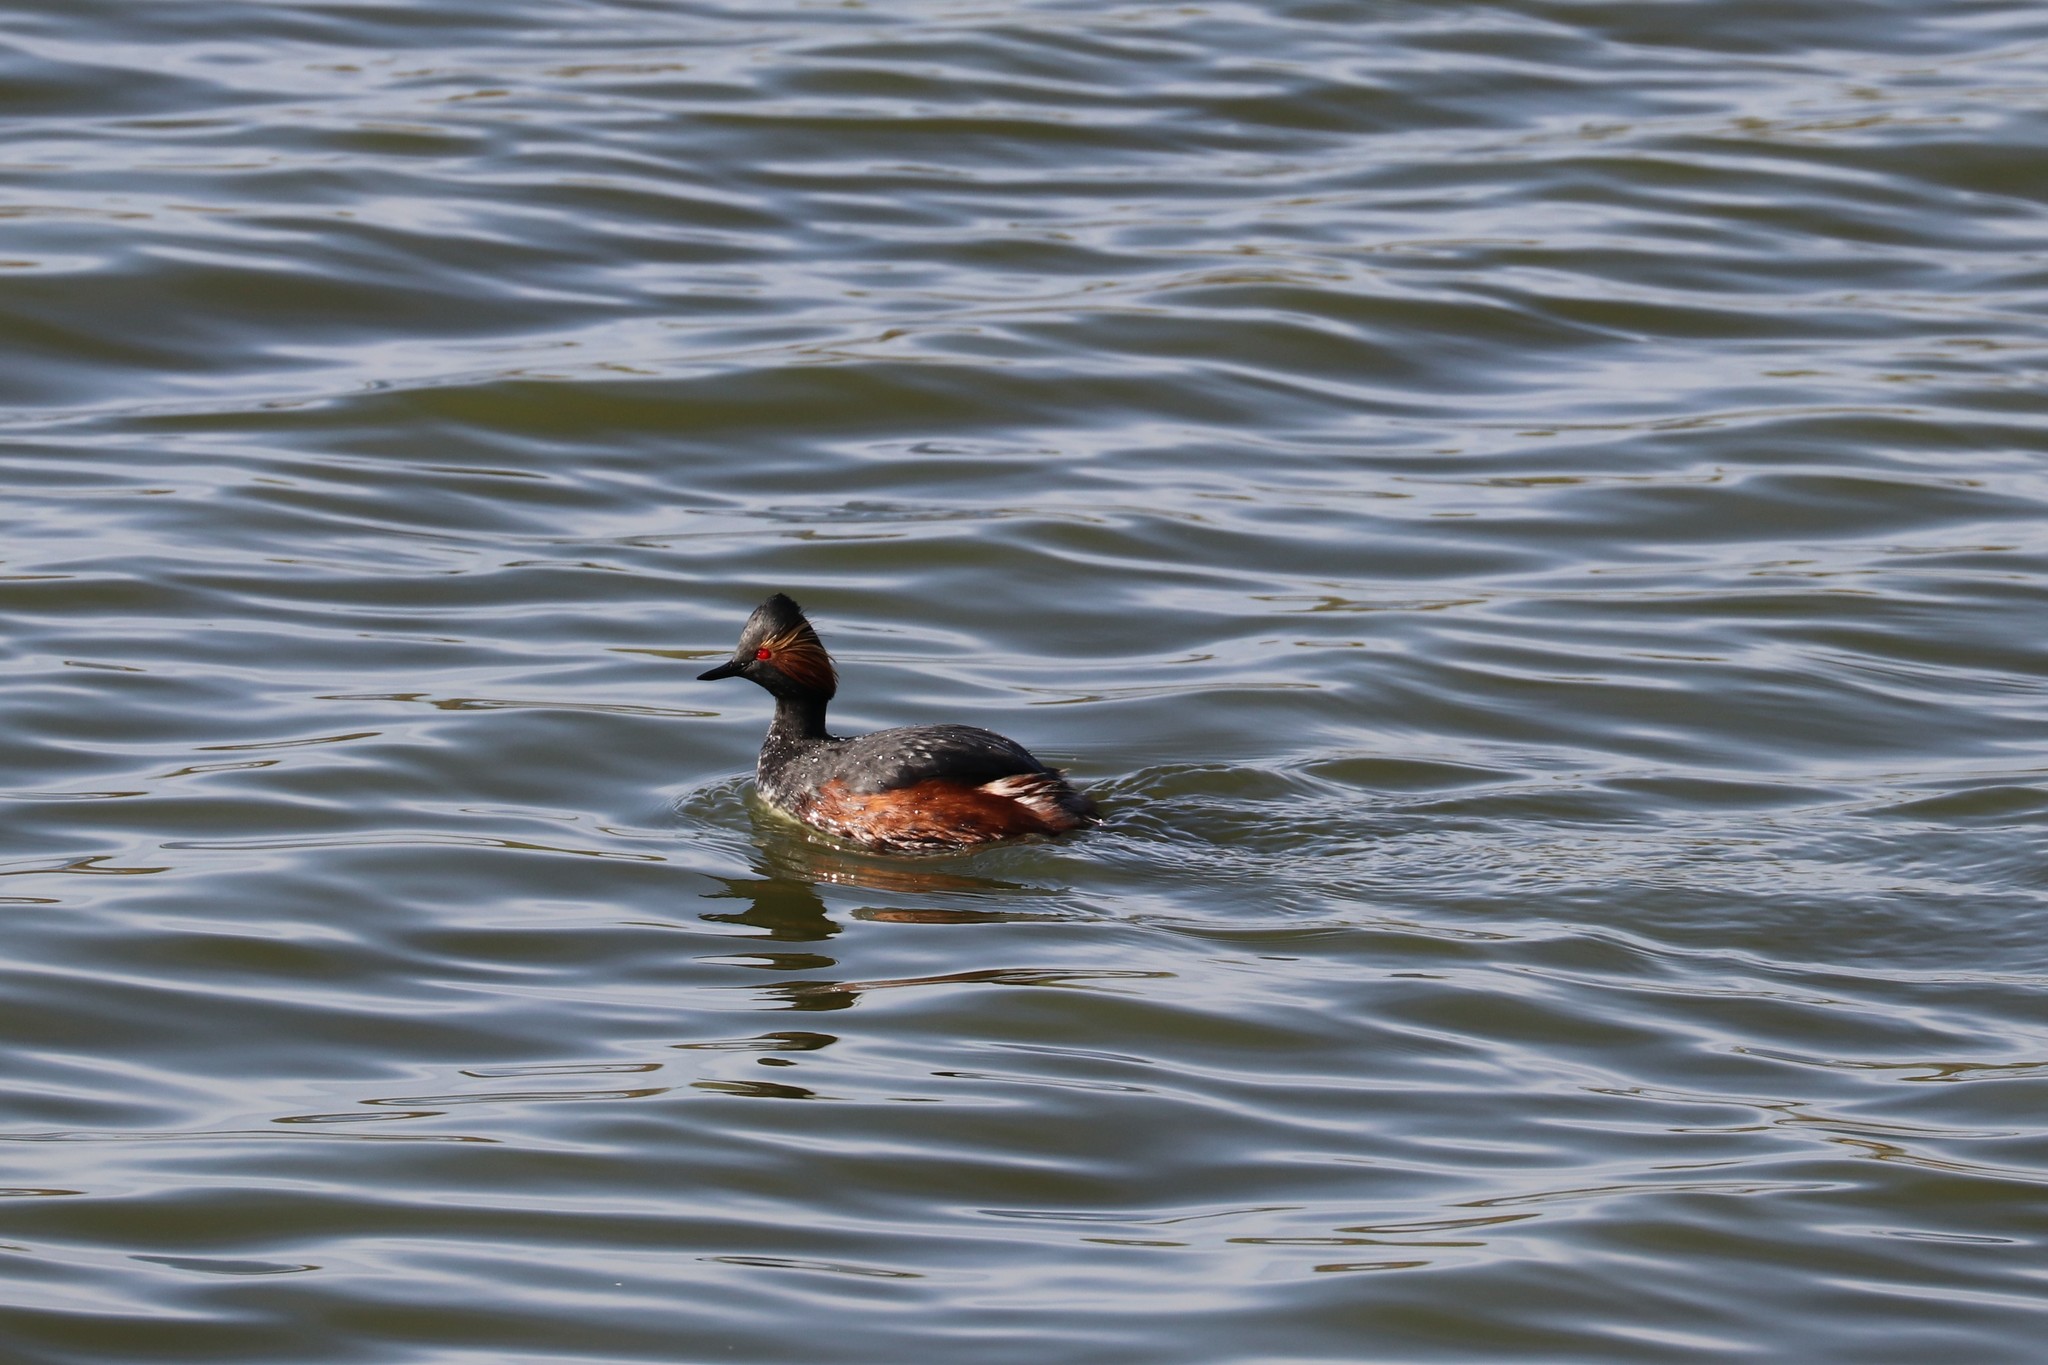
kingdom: Animalia
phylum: Chordata
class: Aves
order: Podicipediformes
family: Podicipedidae
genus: Podiceps
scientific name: Podiceps nigricollis
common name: Black-necked grebe
